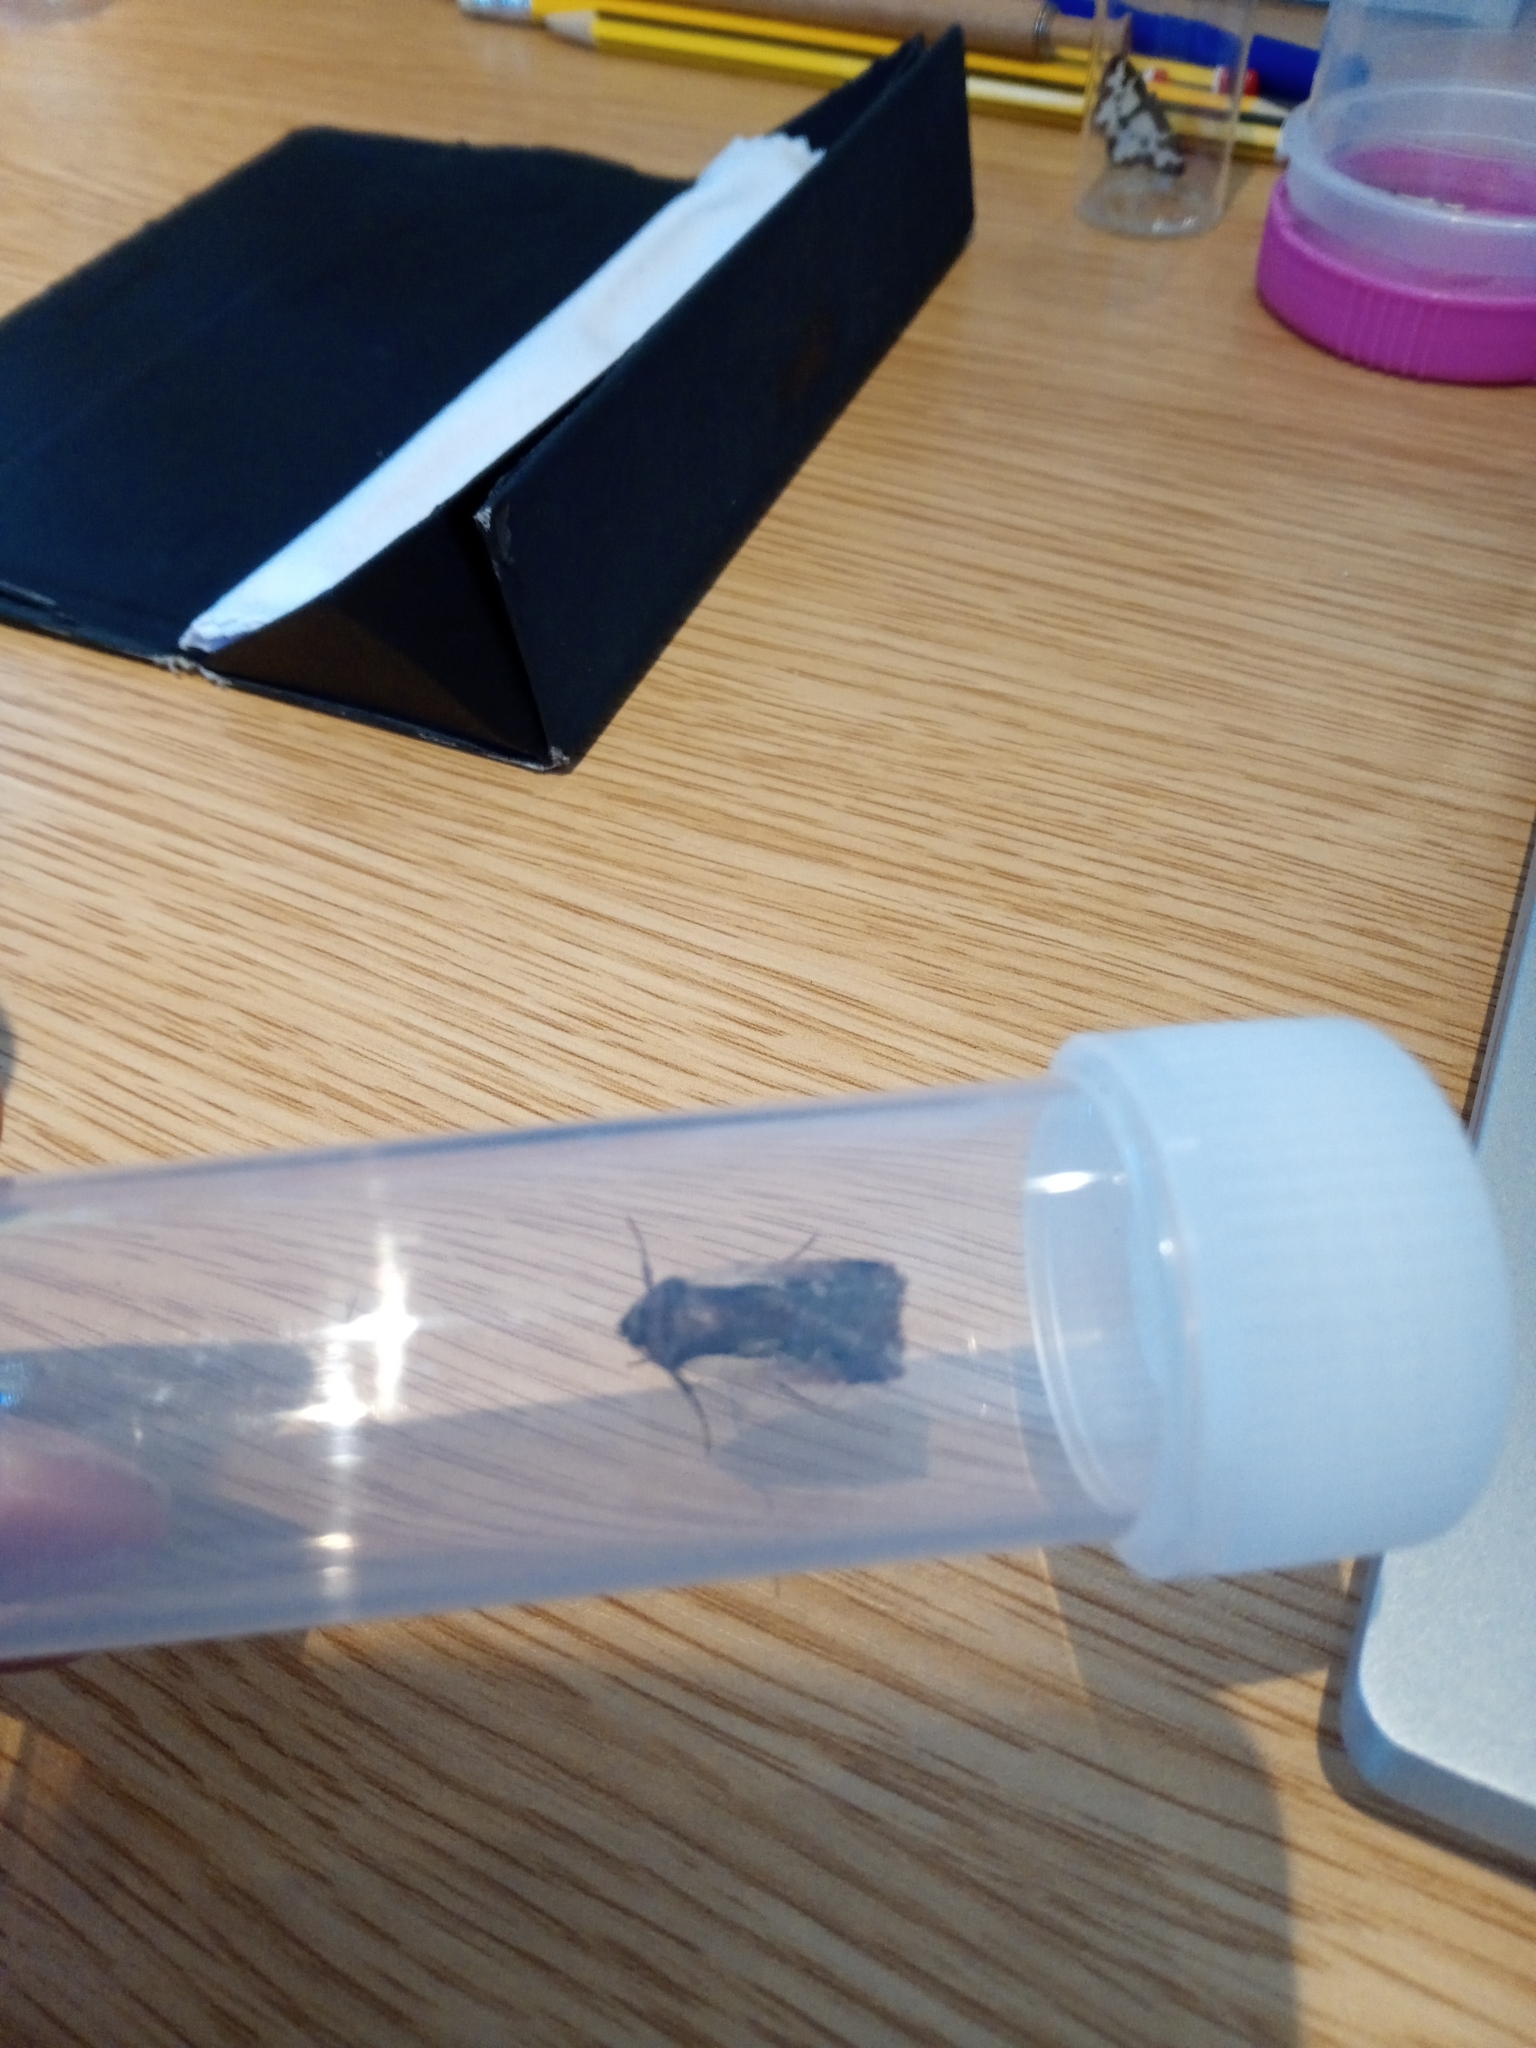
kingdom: Animalia
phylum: Arthropoda
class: Insecta
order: Lepidoptera
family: Noctuidae
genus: Ochropleura
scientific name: Ochropleura plecta
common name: Flame shoulder
